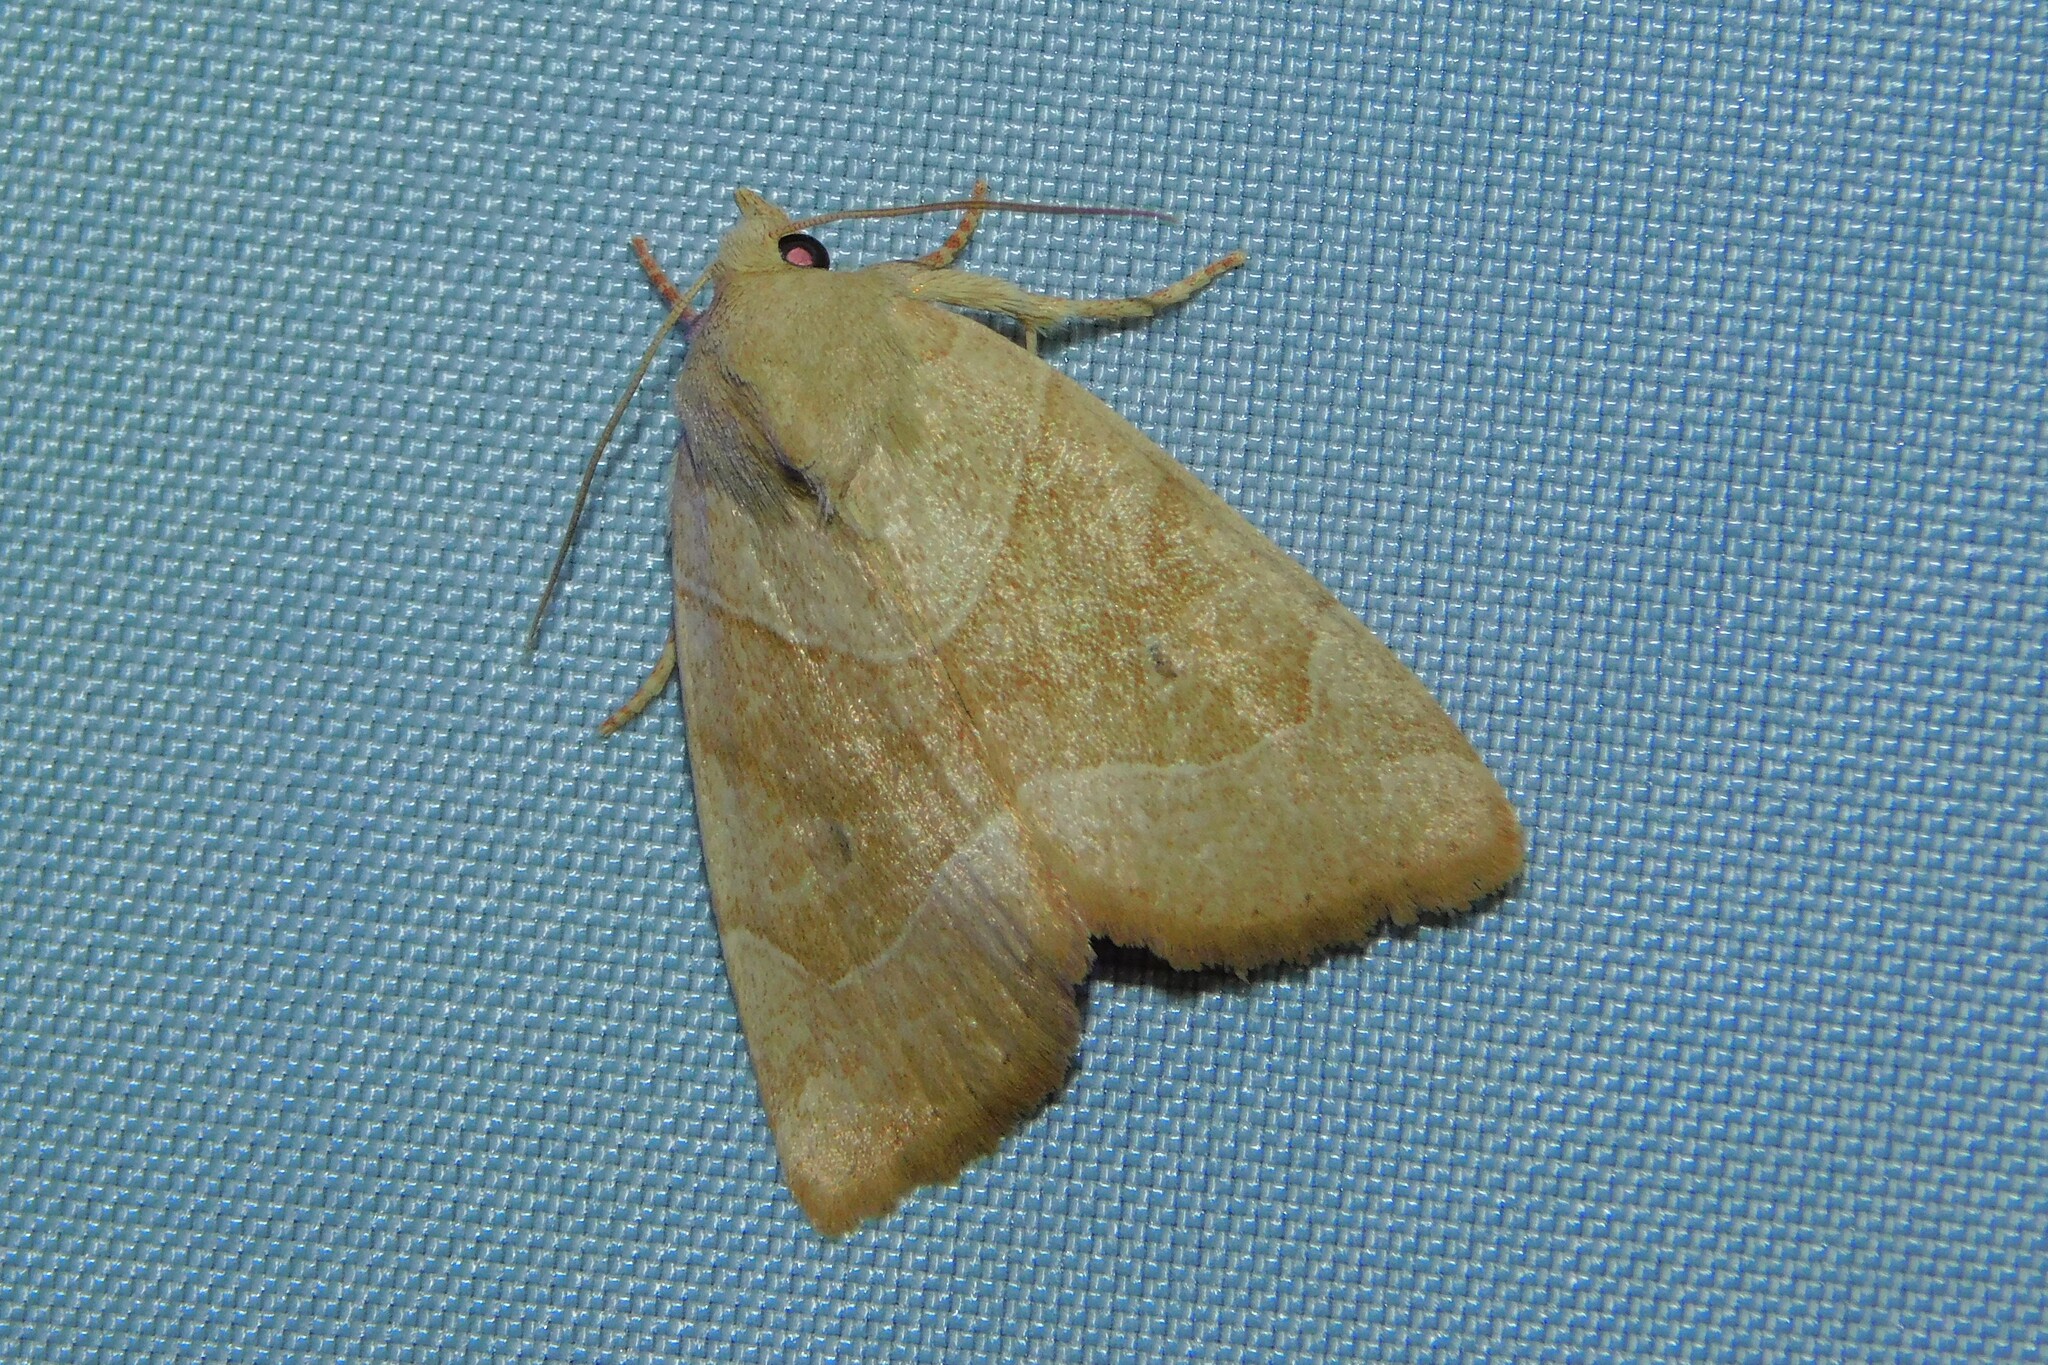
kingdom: Animalia
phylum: Arthropoda
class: Insecta
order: Lepidoptera
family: Noctuidae
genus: Cosmia
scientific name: Cosmia trapezina
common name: Dun-bar
